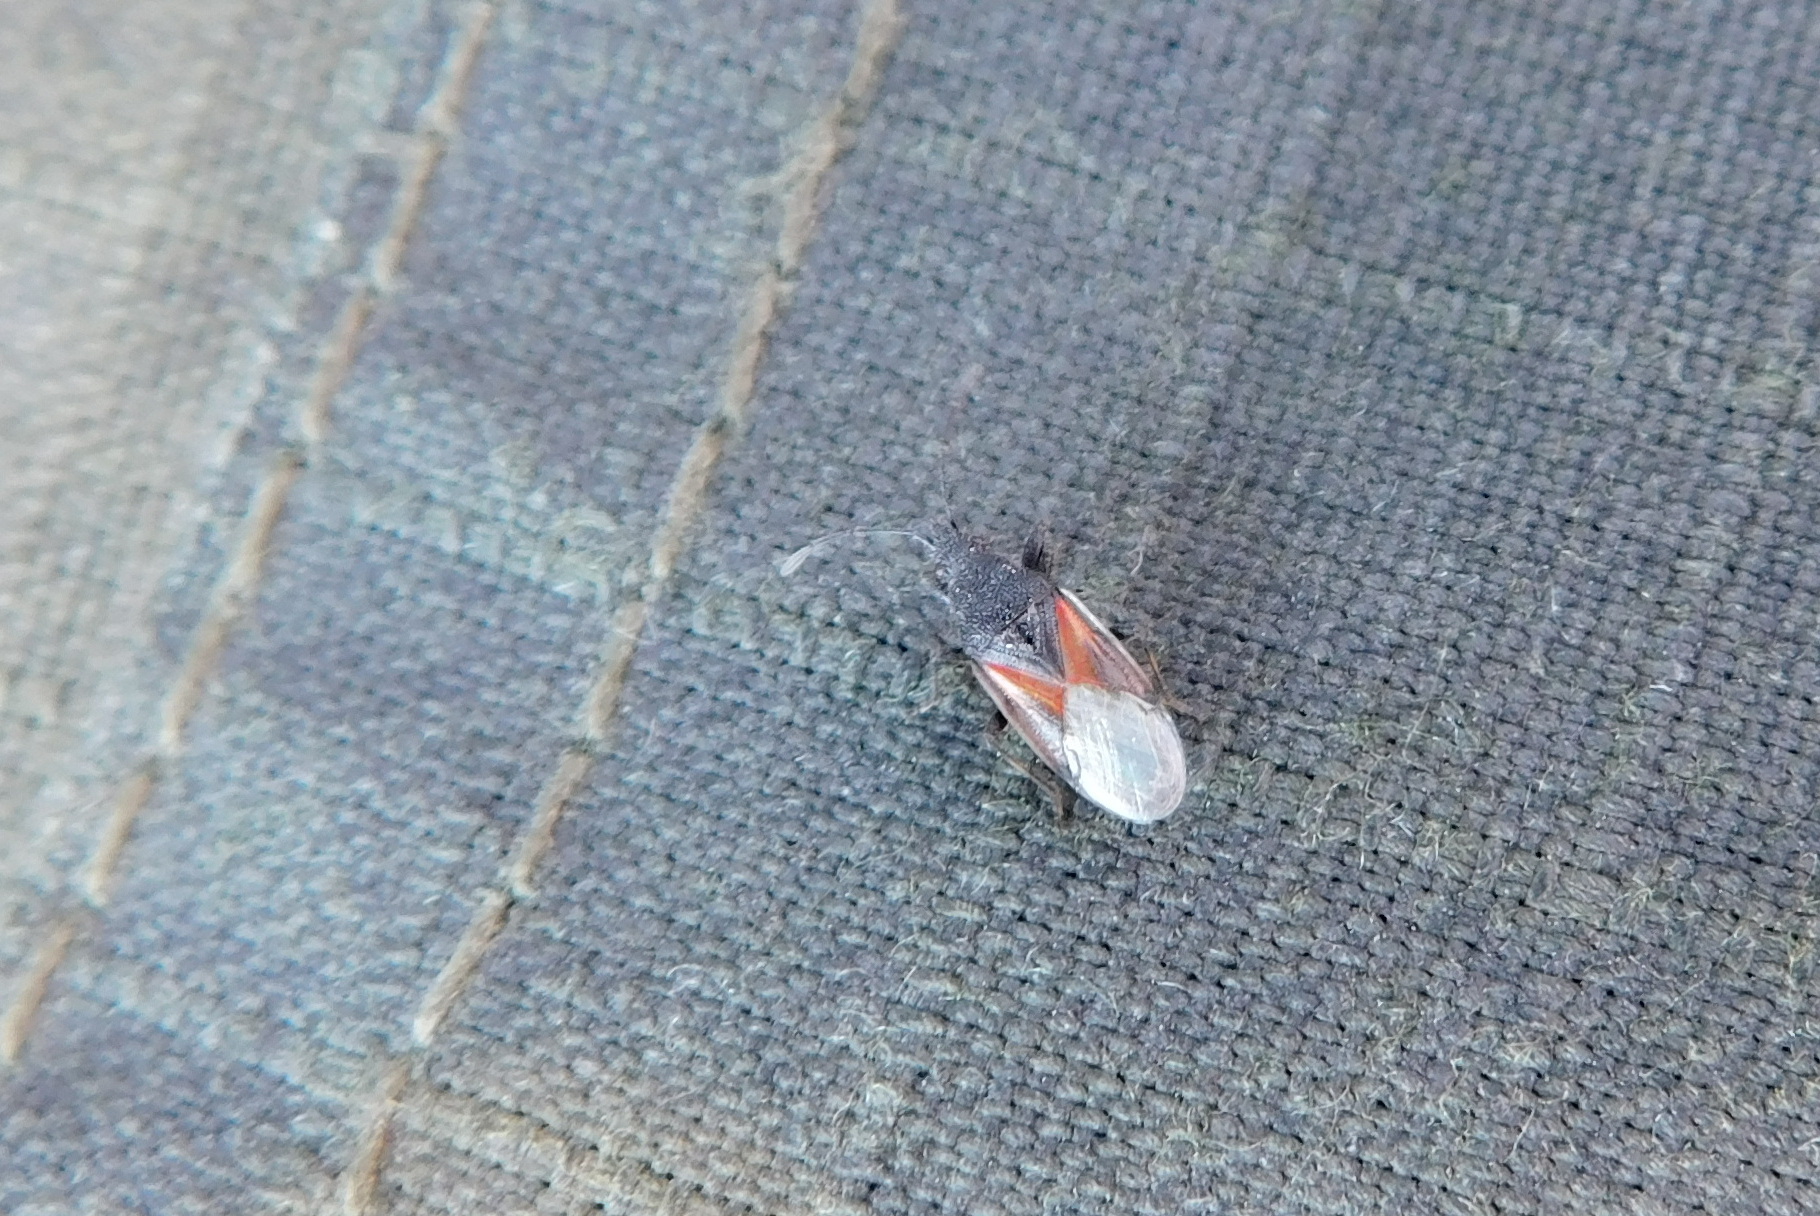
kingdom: Animalia
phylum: Arthropoda
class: Insecta
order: Hemiptera
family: Oxycarenidae
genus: Oxycarenus
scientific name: Oxycarenus lavaterae
